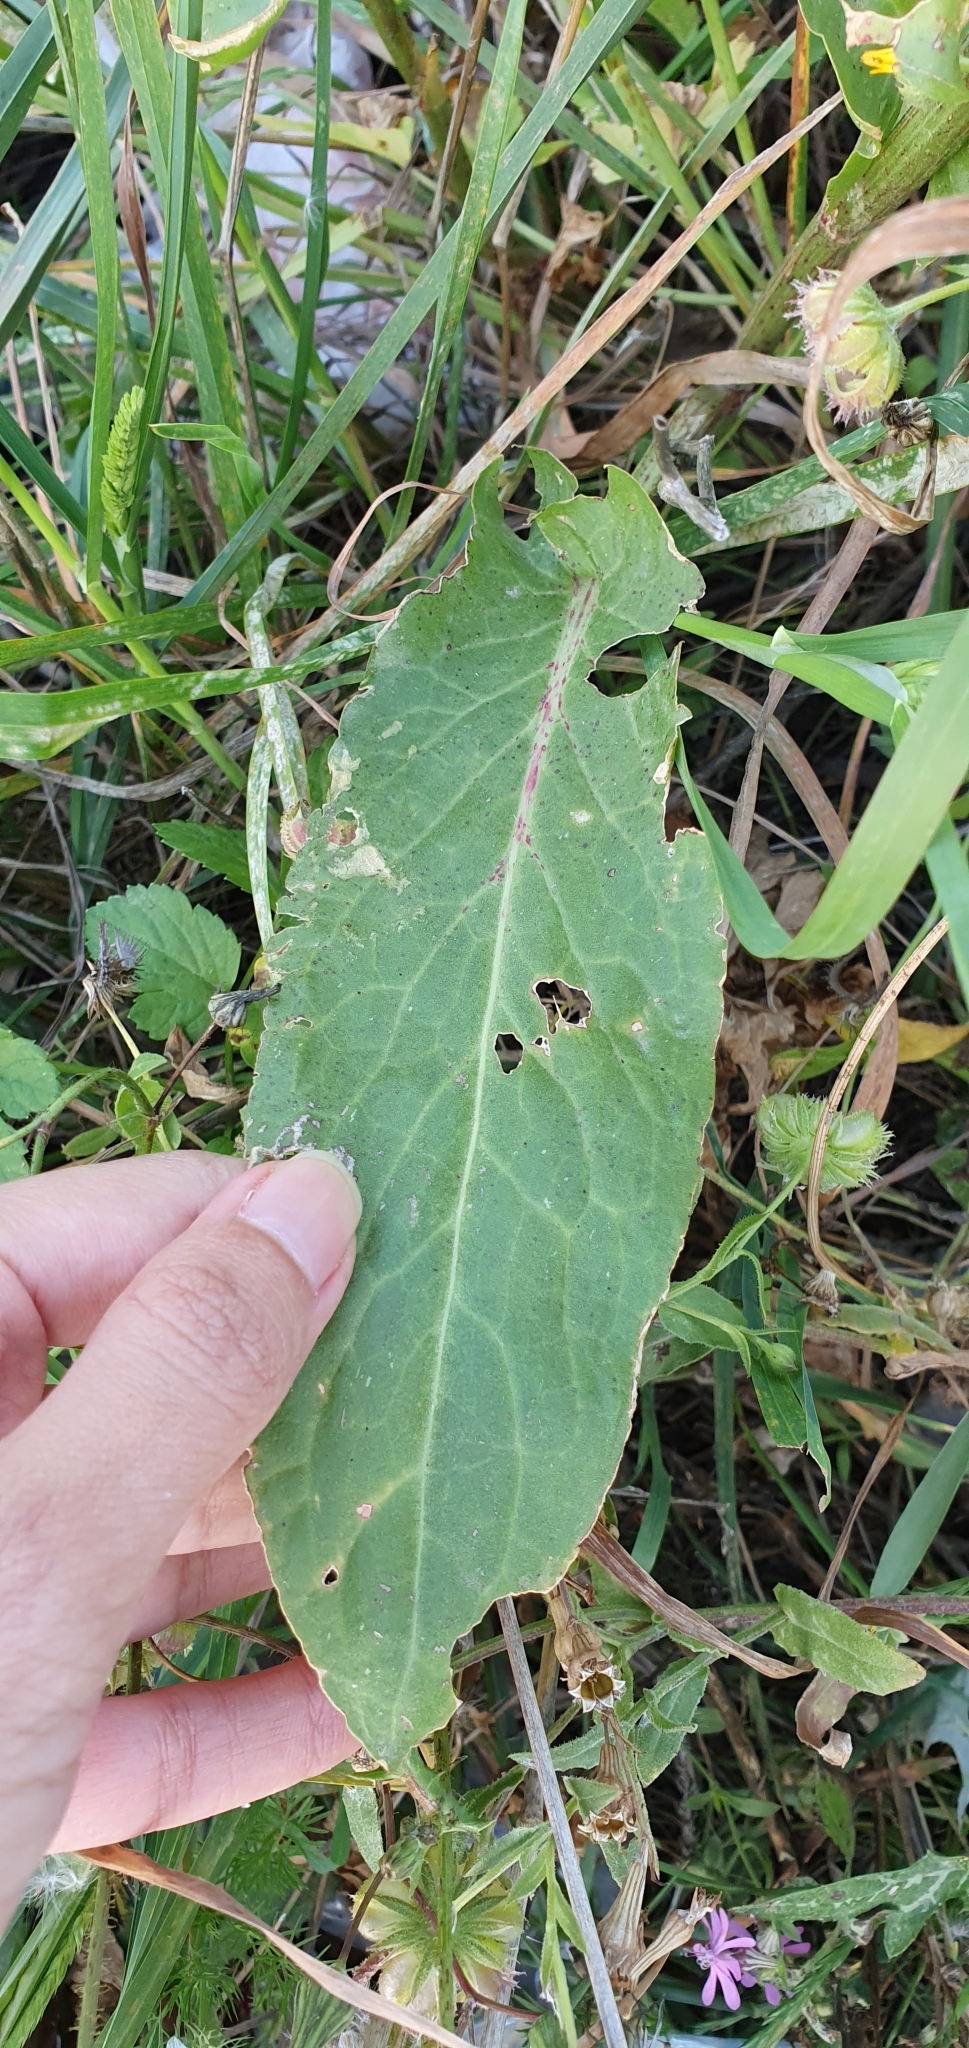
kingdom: Plantae
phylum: Tracheophyta
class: Magnoliopsida
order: Caryophyllales
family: Polygonaceae
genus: Rumex
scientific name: Rumex thyrsoides
